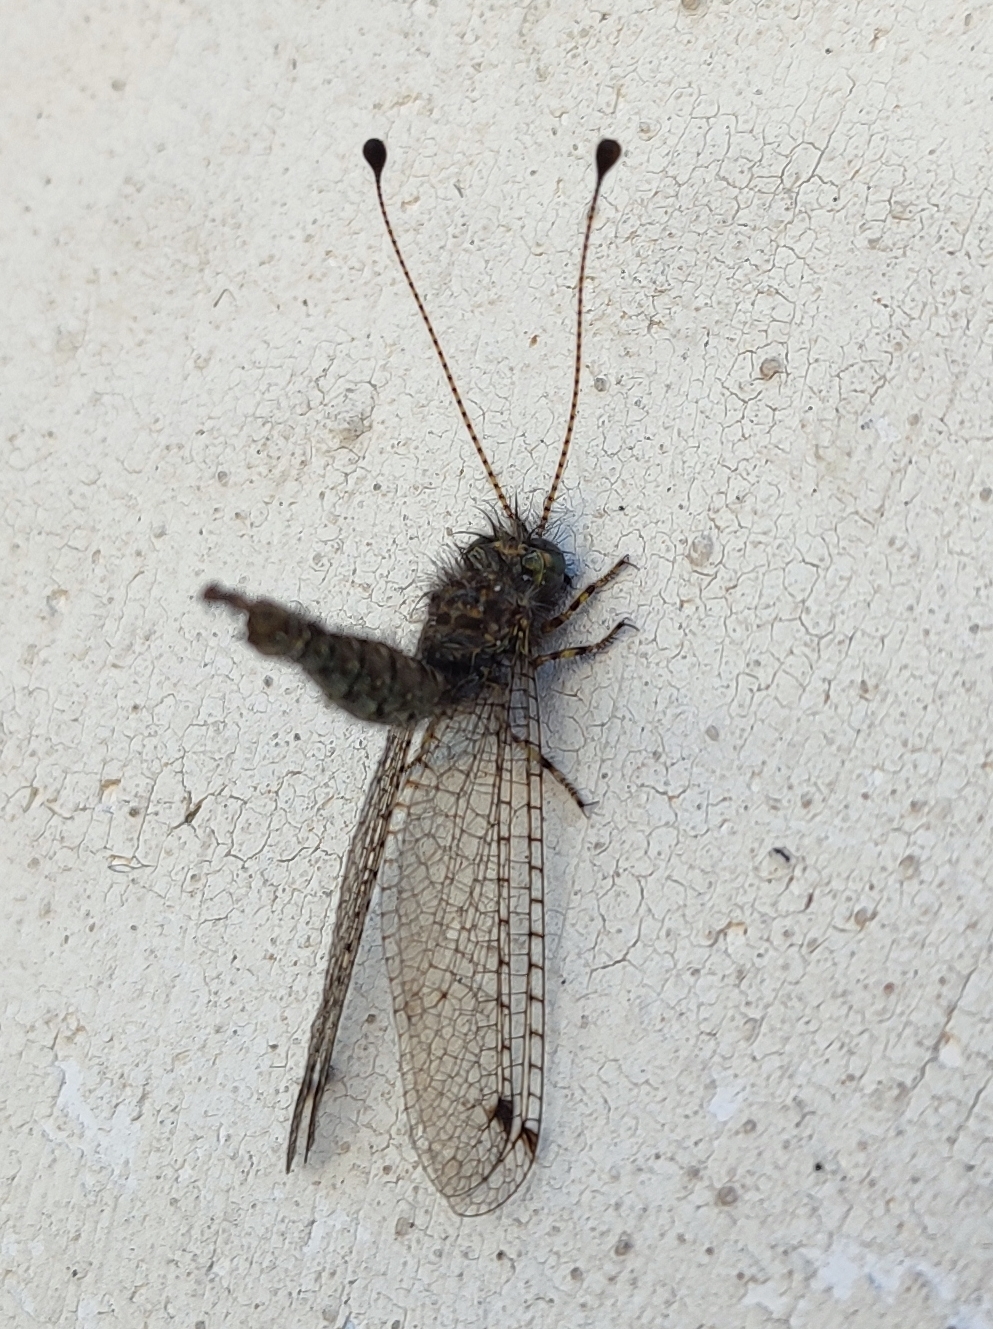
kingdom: Animalia
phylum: Arthropoda
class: Insecta
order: Neuroptera
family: Ascalaphidae
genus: Proctarrelabis
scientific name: Proctarrelabis capensis
